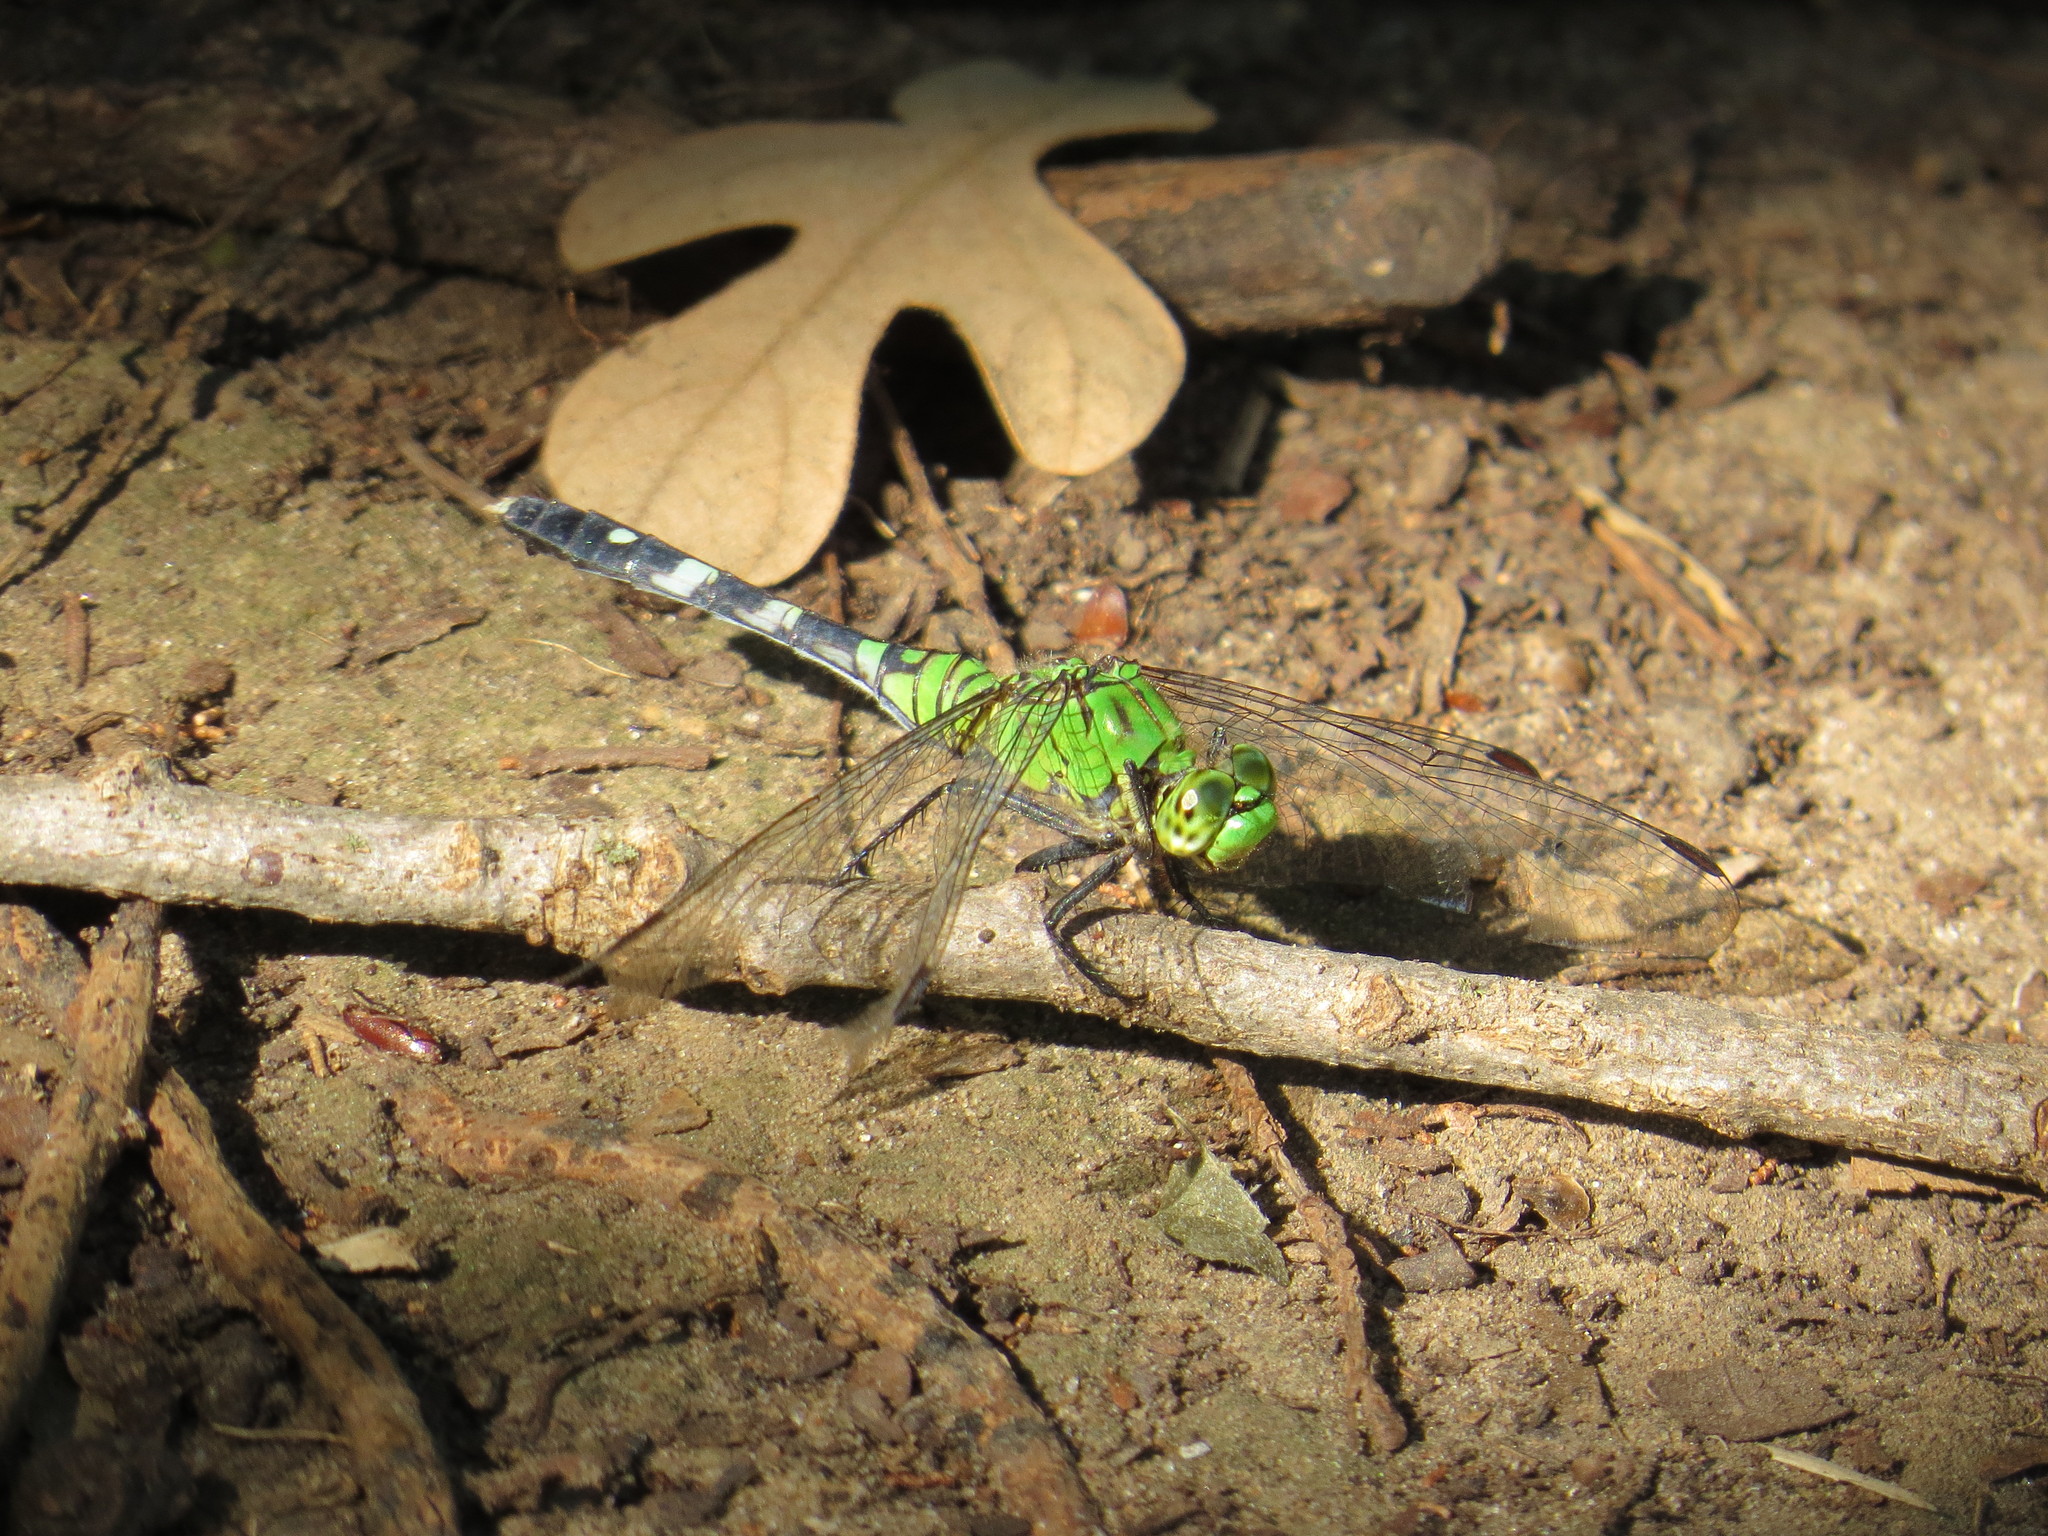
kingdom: Animalia
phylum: Arthropoda
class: Insecta
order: Odonata
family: Libellulidae
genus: Erythemis
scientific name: Erythemis simplicicollis
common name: Eastern pondhawk
